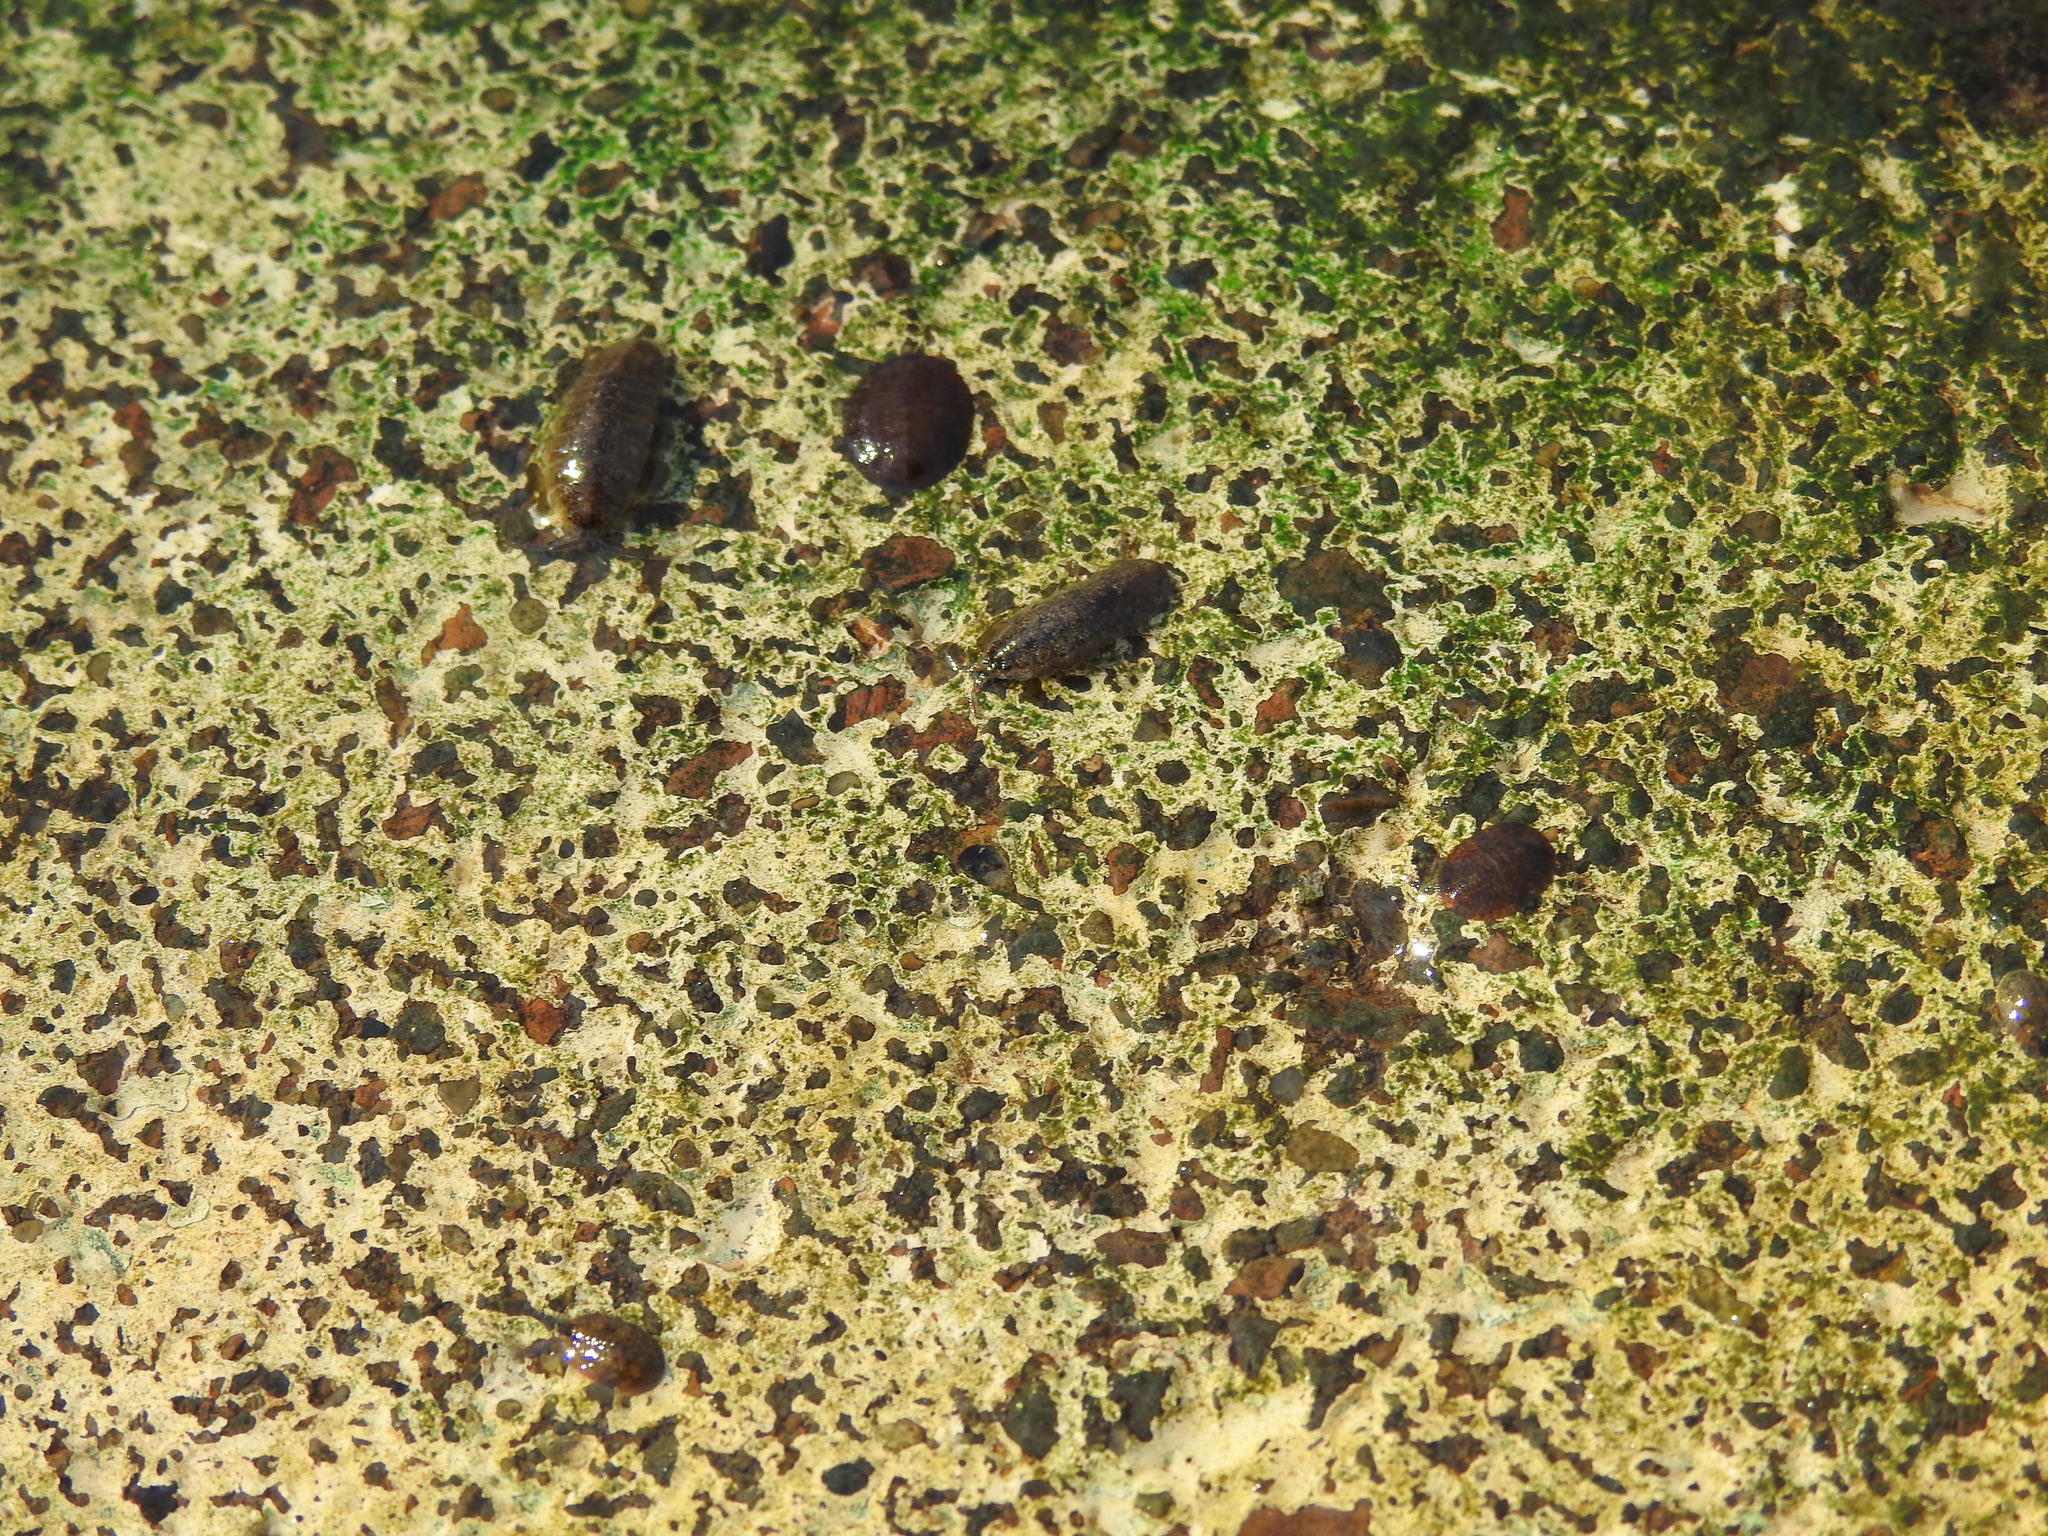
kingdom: Animalia
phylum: Arthropoda
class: Malacostraca
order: Isopoda
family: Asellidae
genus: Lirceus
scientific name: Lirceus fontinalis
